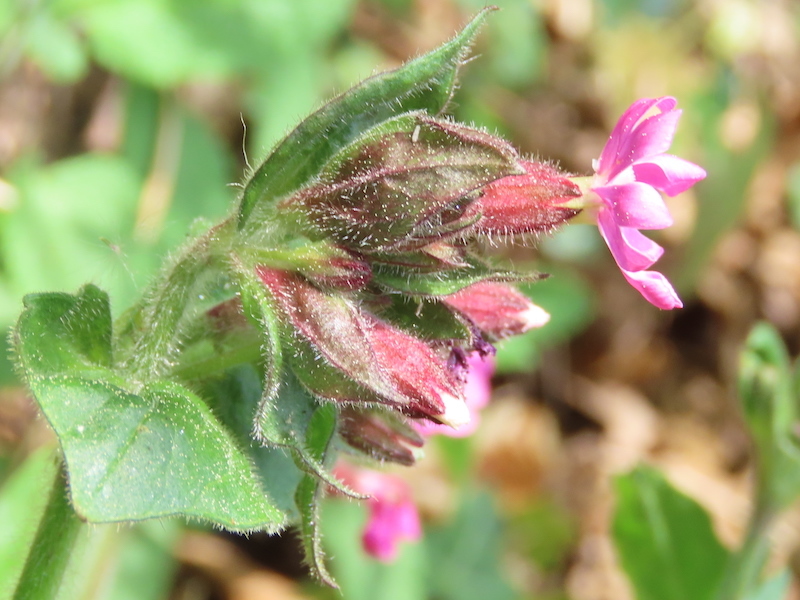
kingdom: Plantae
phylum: Tracheophyta
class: Magnoliopsida
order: Caryophyllales
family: Caryophyllaceae
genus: Silene
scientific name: Silene dioica
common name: Red campion
